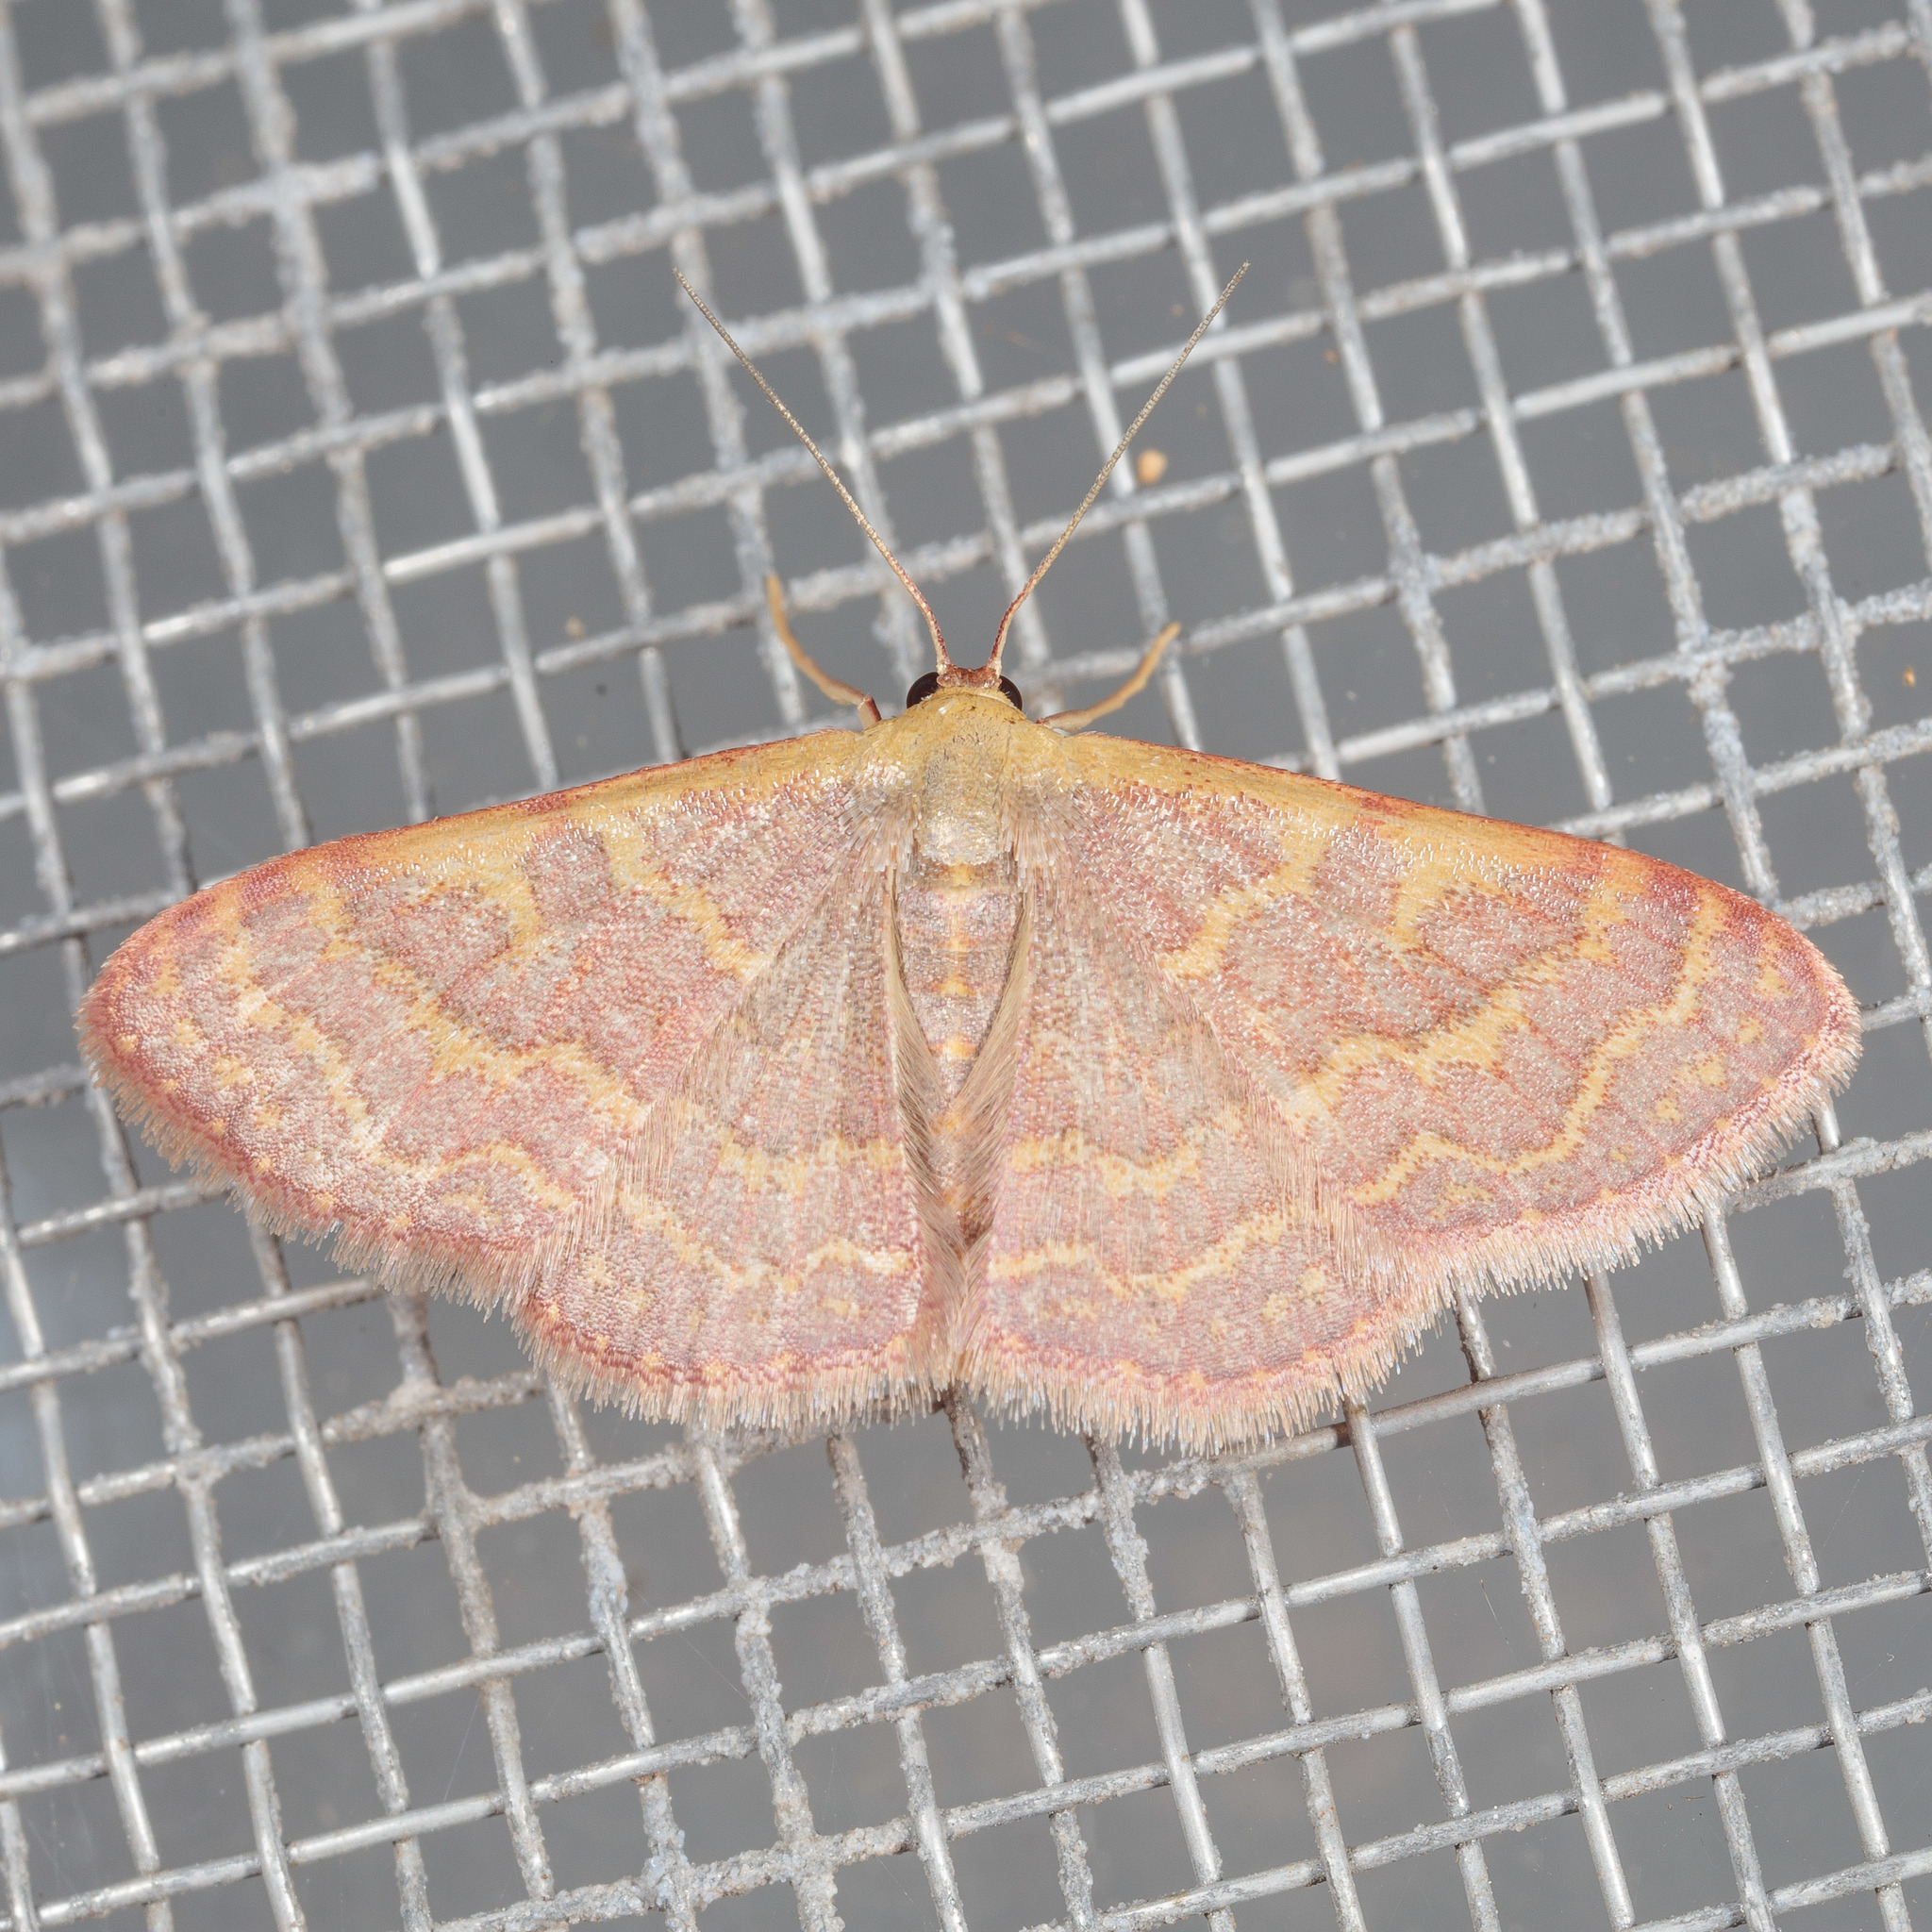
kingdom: Animalia
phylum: Arthropoda
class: Insecta
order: Lepidoptera
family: Geometridae
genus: Leptostales
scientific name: Leptostales pannaria
